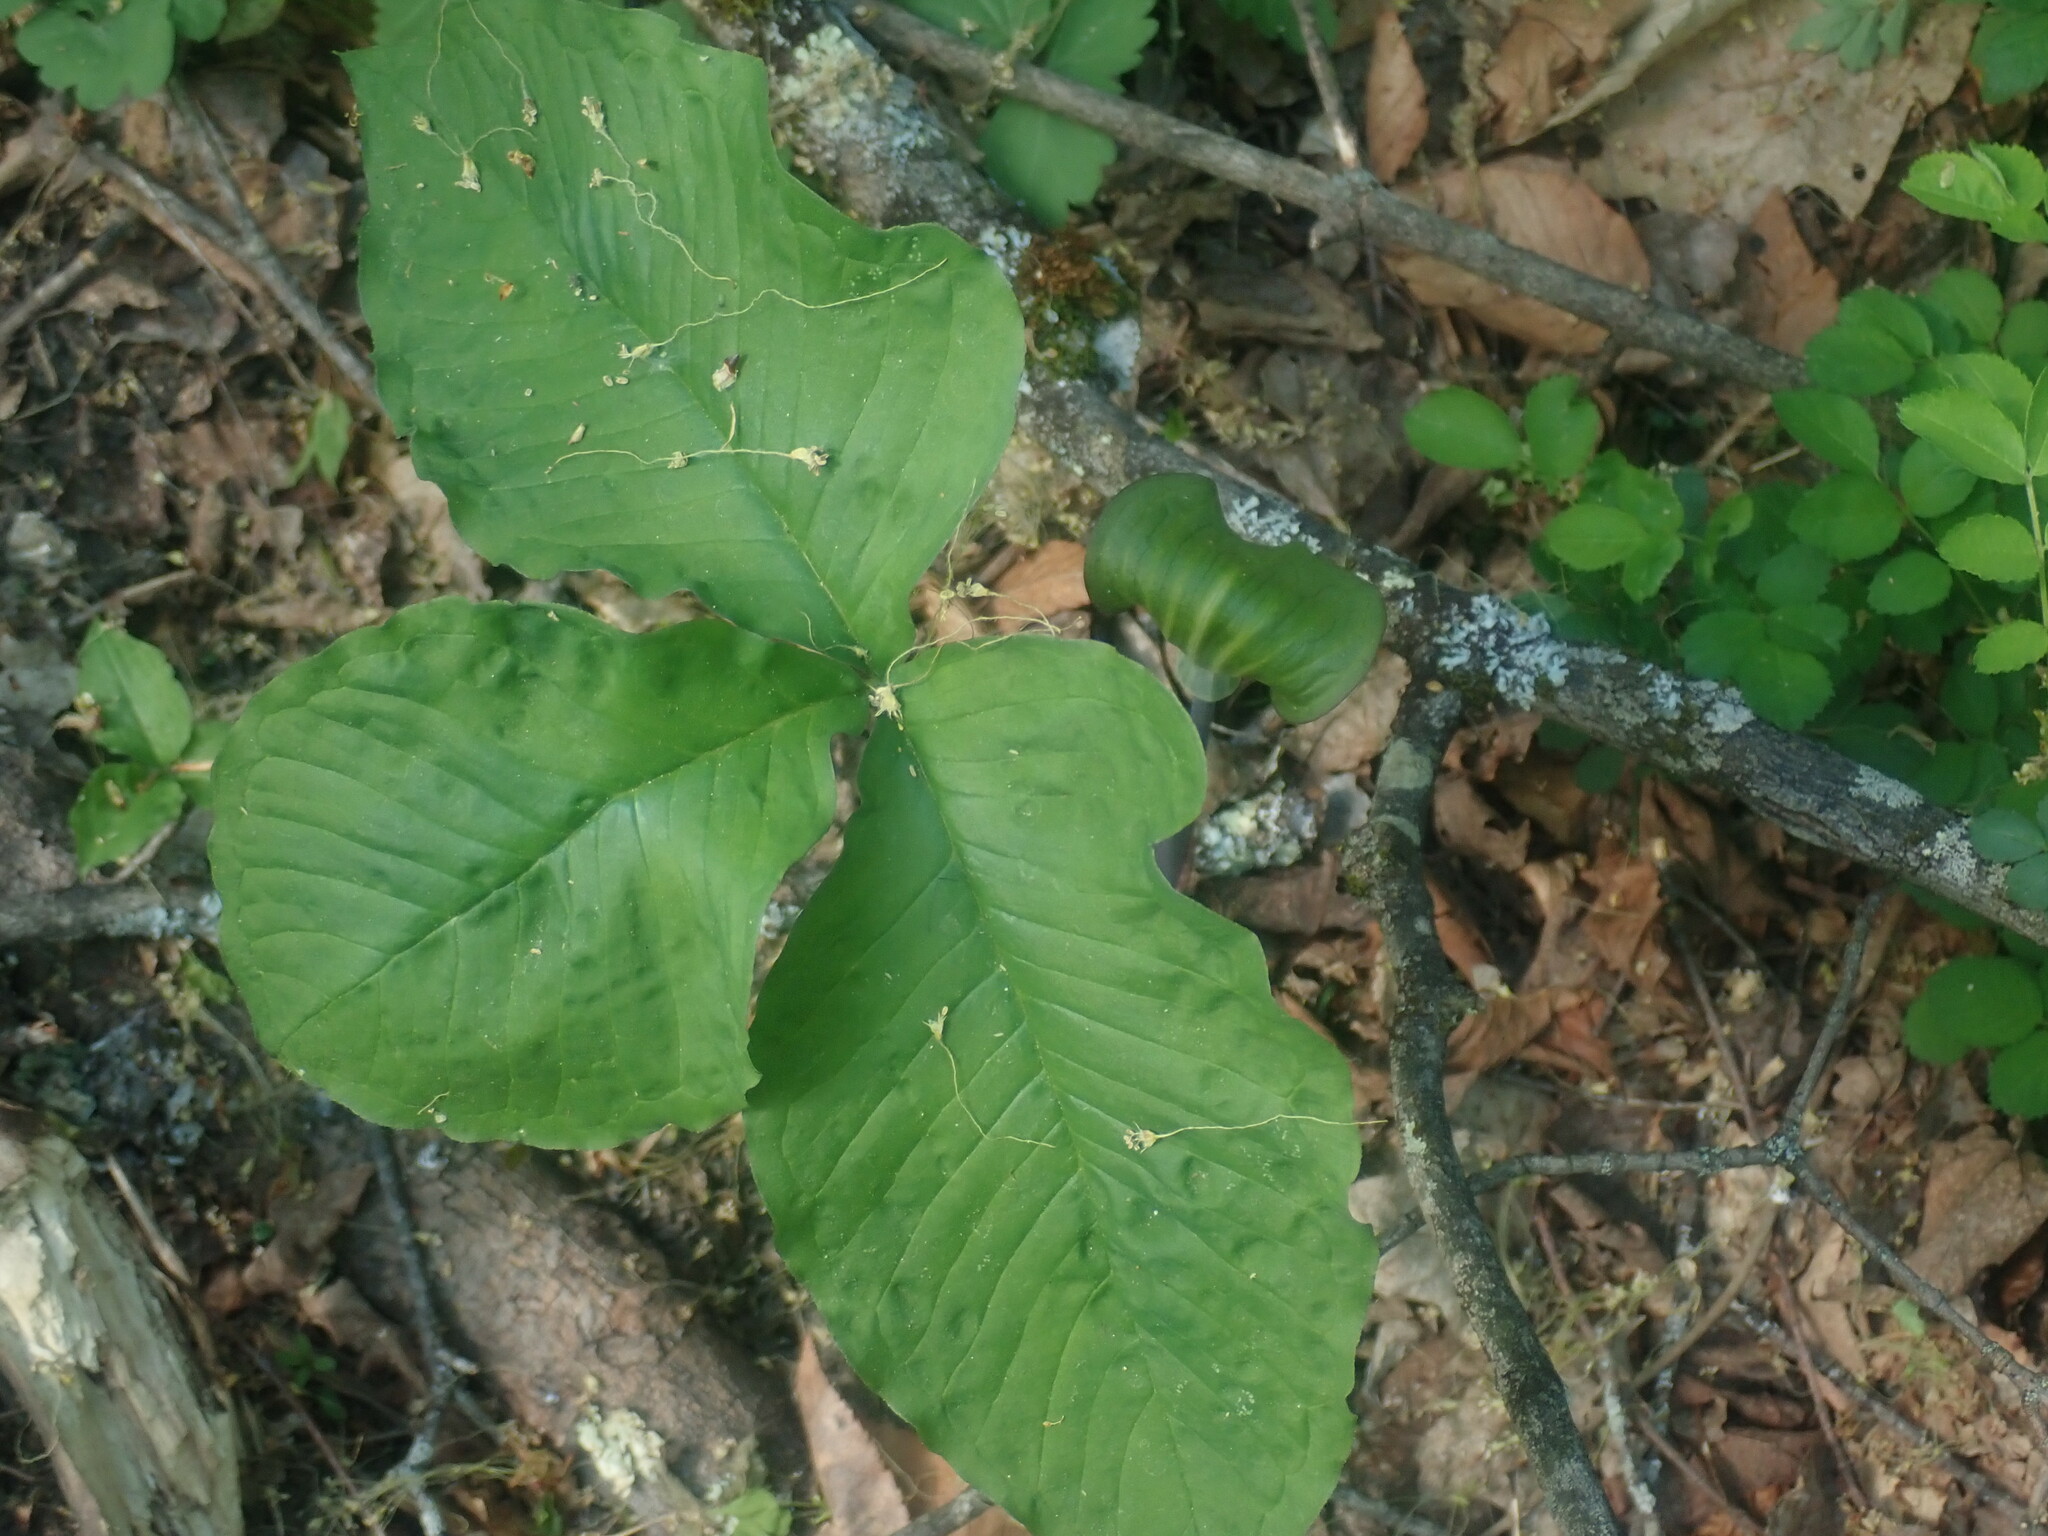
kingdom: Plantae
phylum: Tracheophyta
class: Liliopsida
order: Alismatales
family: Araceae
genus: Arisaema
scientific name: Arisaema triphyllum
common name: Jack-in-the-pulpit
